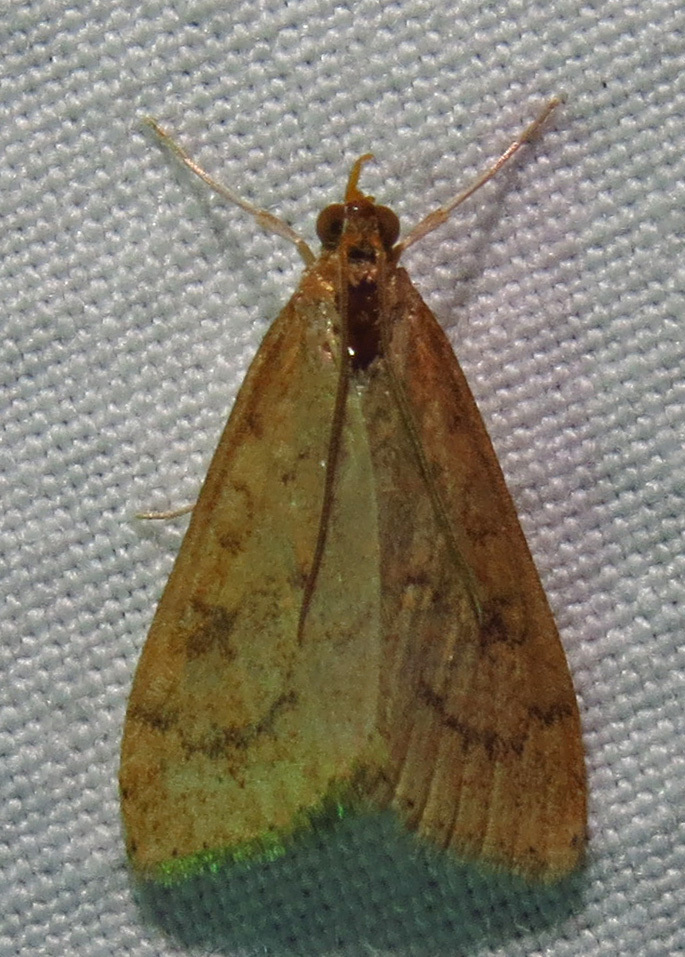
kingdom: Animalia
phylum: Arthropoda
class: Insecta
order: Lepidoptera
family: Crambidae
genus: Udea
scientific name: Udea rubigalis
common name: Celery leaftier moth
